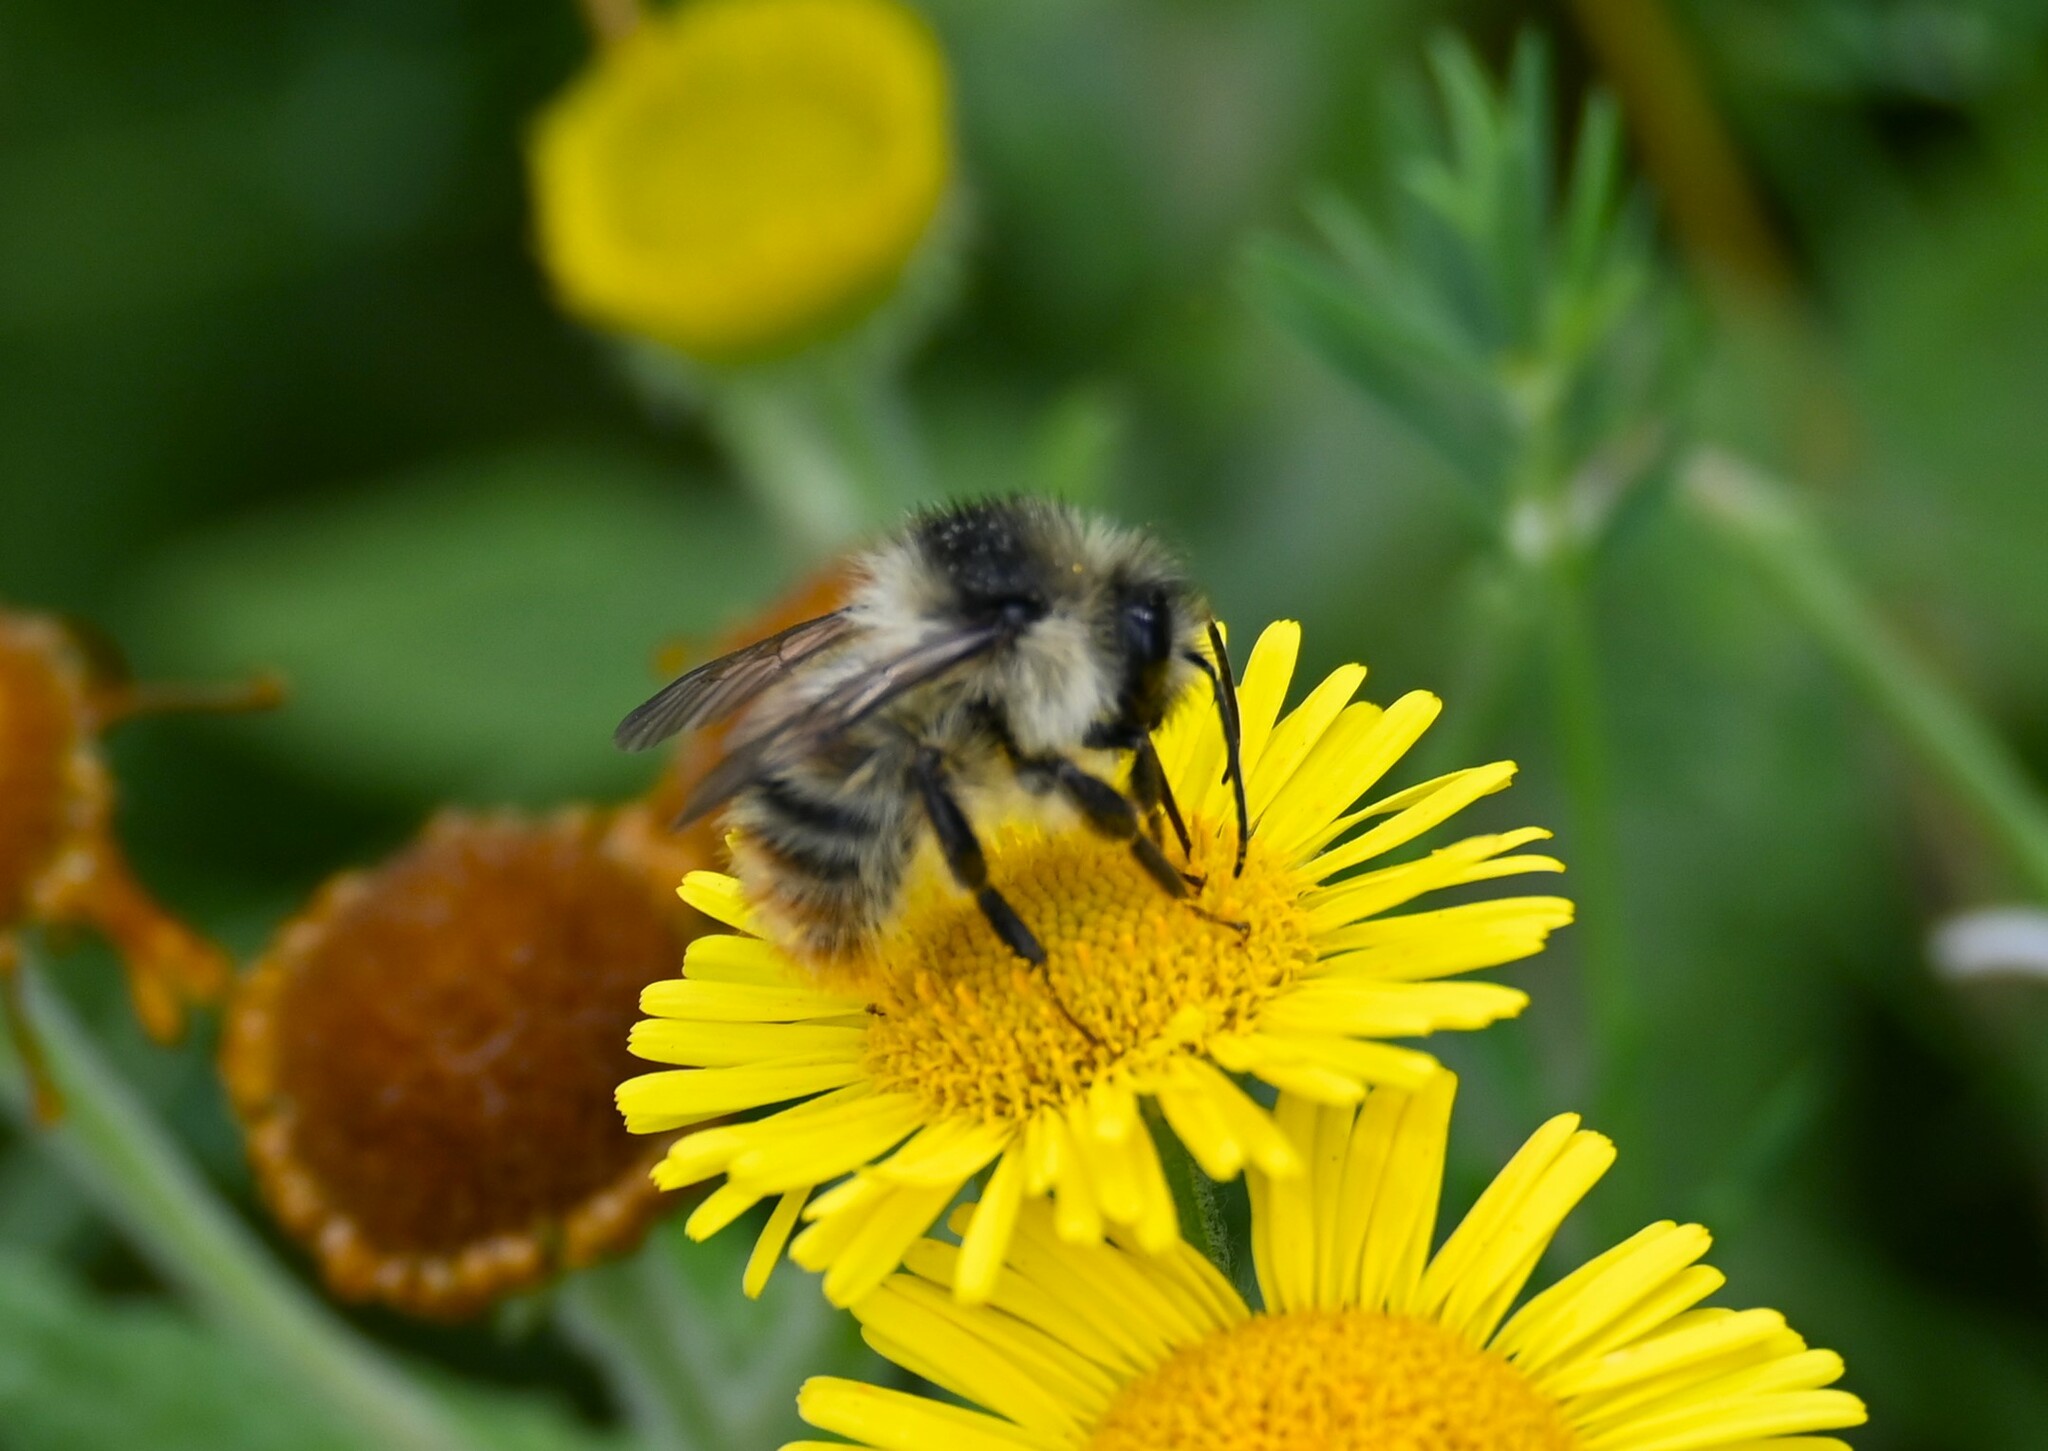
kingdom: Animalia
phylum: Arthropoda
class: Insecta
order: Hymenoptera
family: Apidae
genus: Bombus
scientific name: Bombus sylvarum
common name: Shrill carder bee
